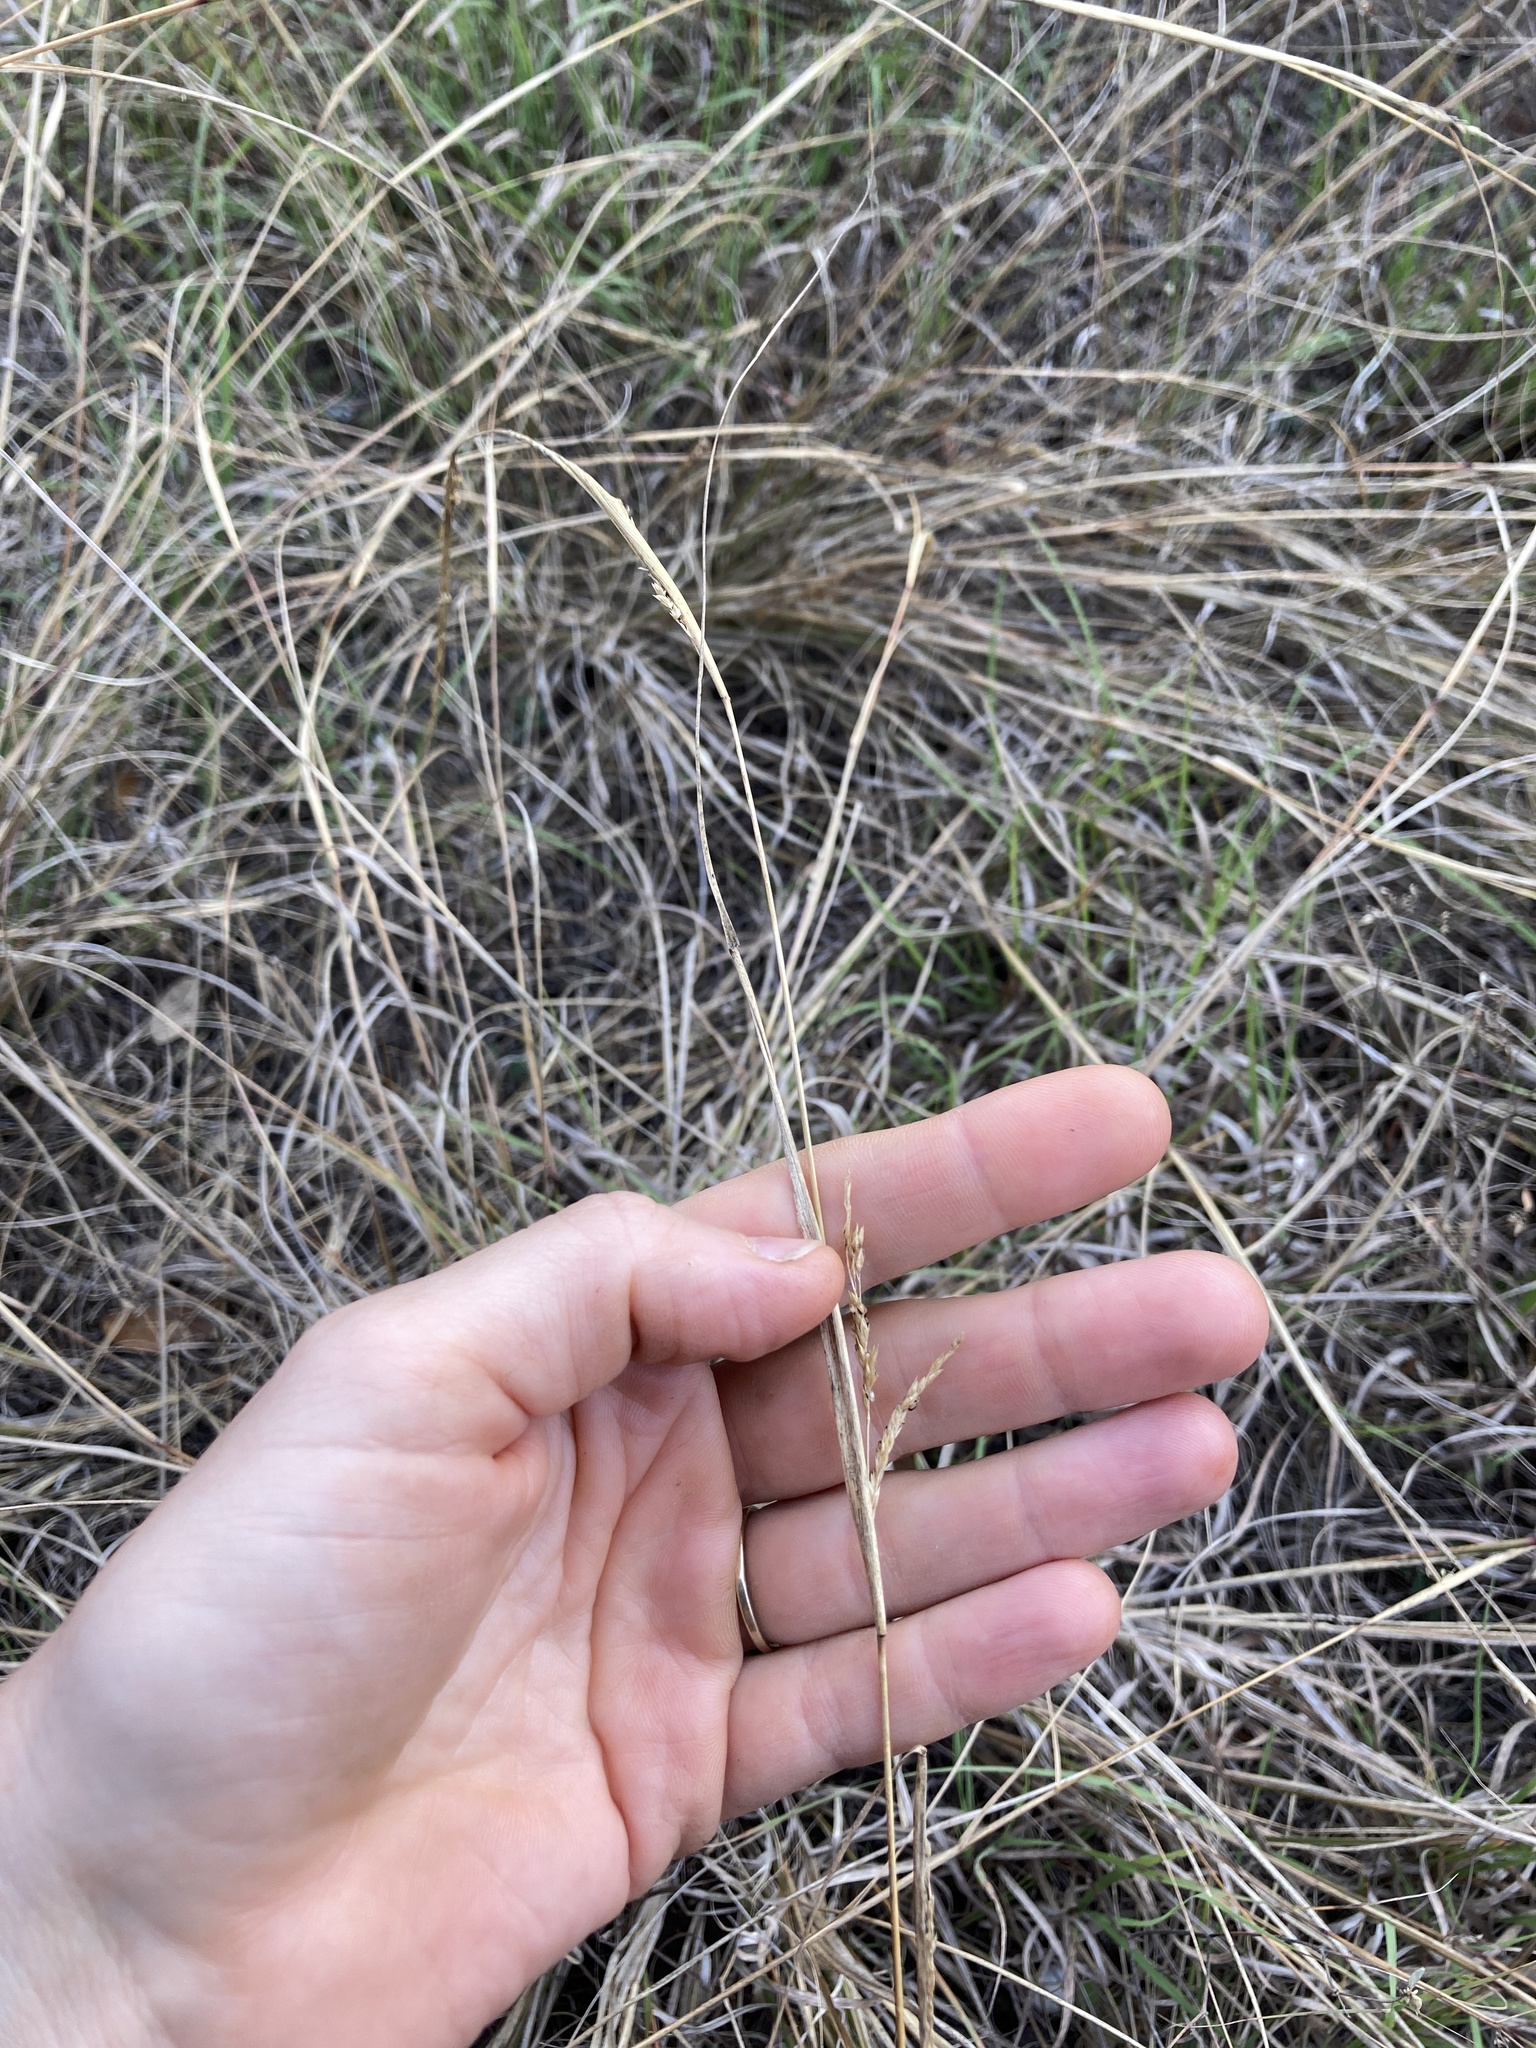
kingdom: Plantae
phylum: Tracheophyta
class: Liliopsida
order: Poales
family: Poaceae
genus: Sporobolus
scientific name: Sporobolus compositus
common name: Rough dropseed
